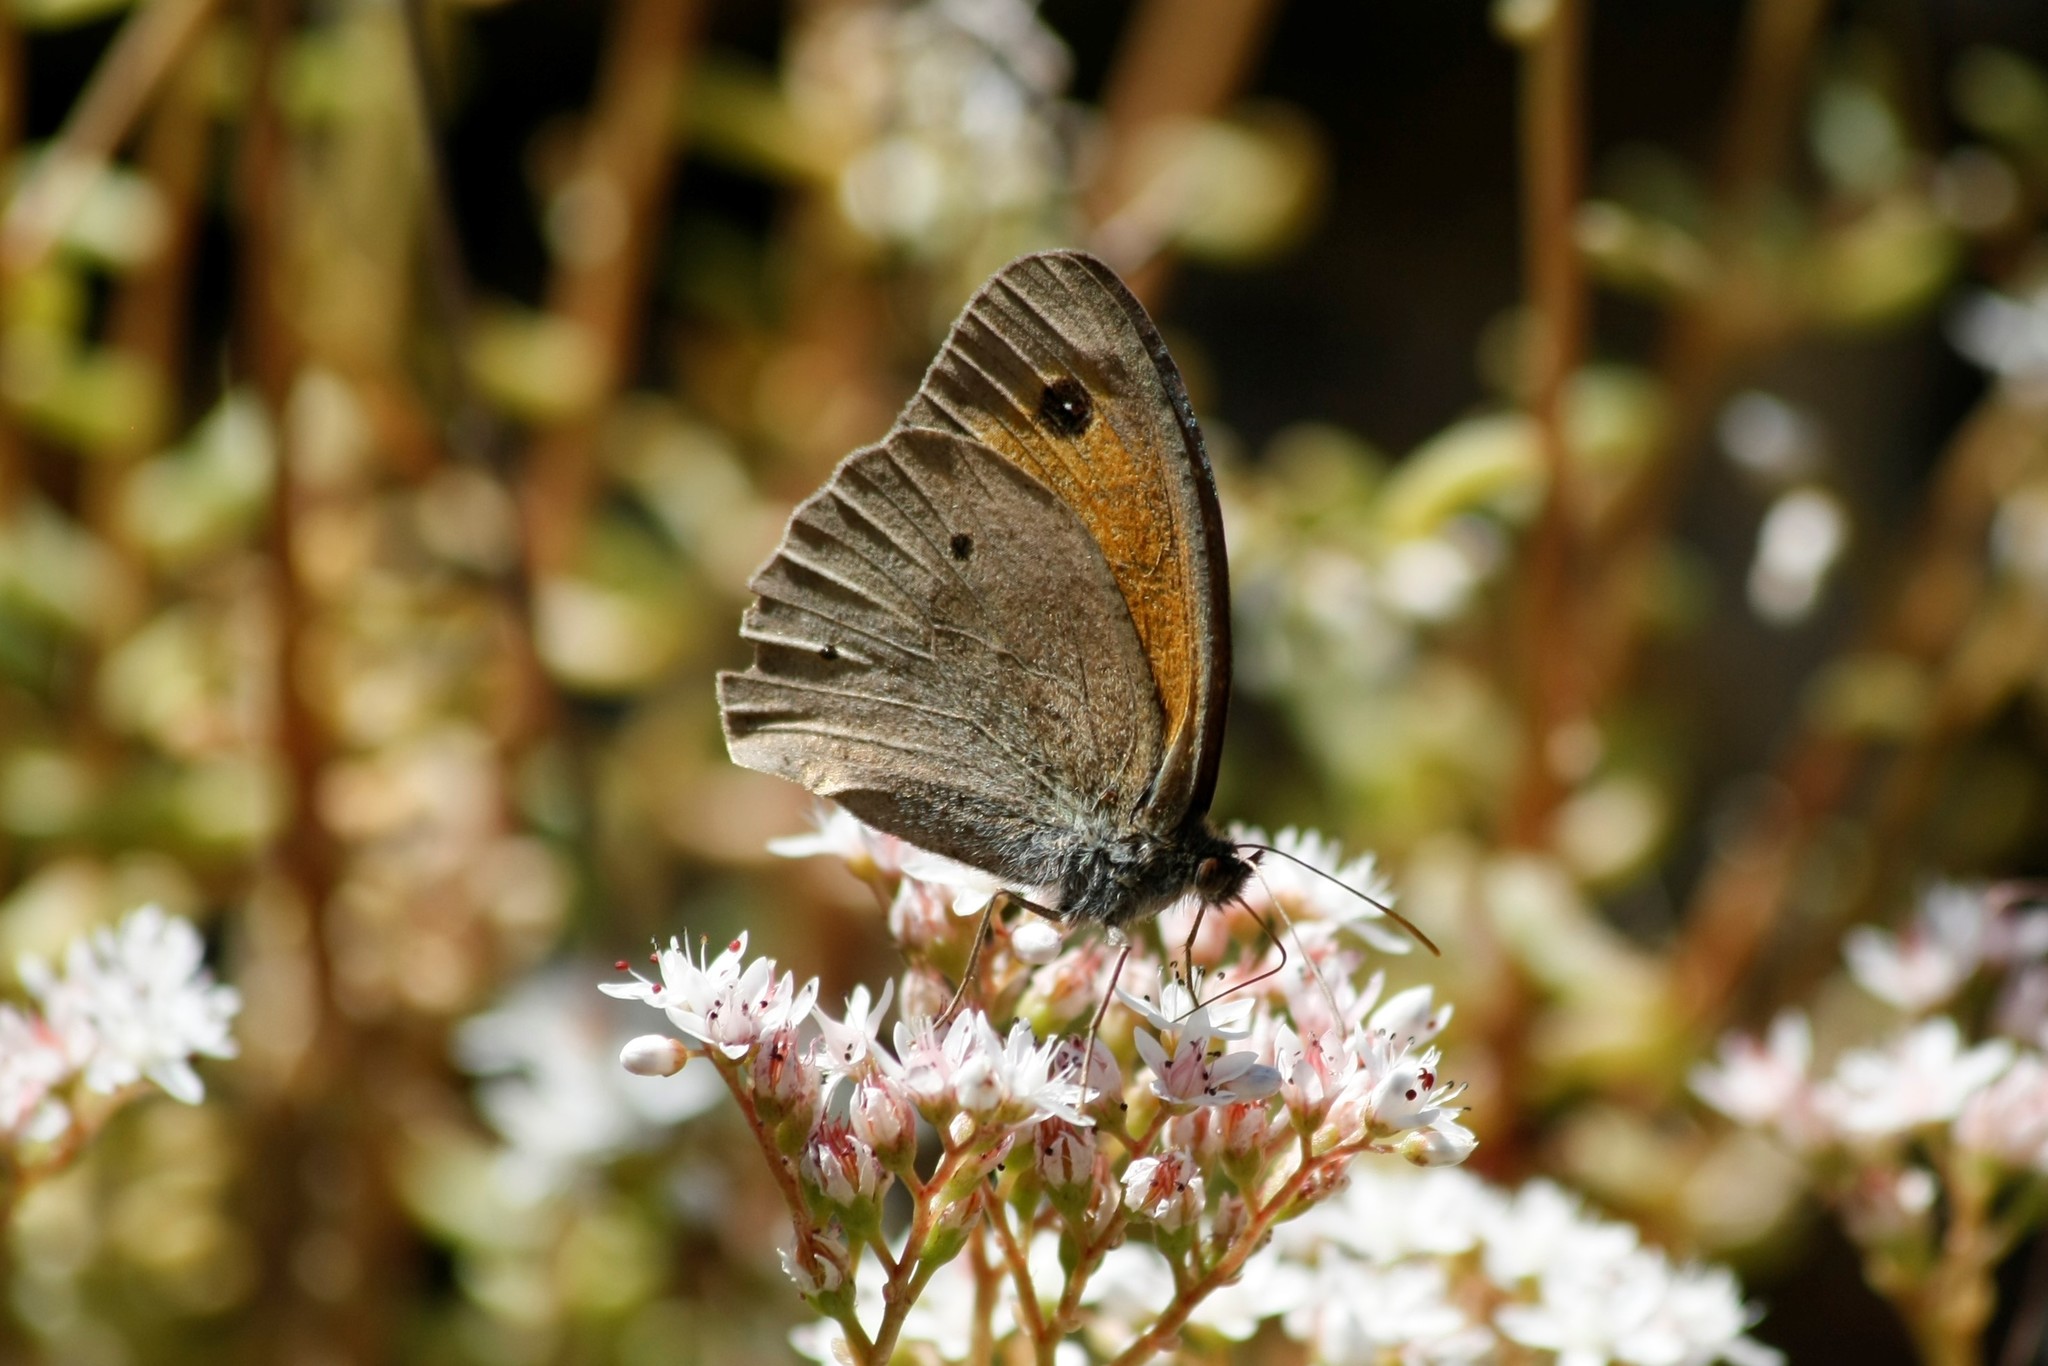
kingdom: Animalia
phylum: Arthropoda
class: Insecta
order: Lepidoptera
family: Nymphalidae
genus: Maniola
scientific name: Maniola jurtina
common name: Meadow brown
